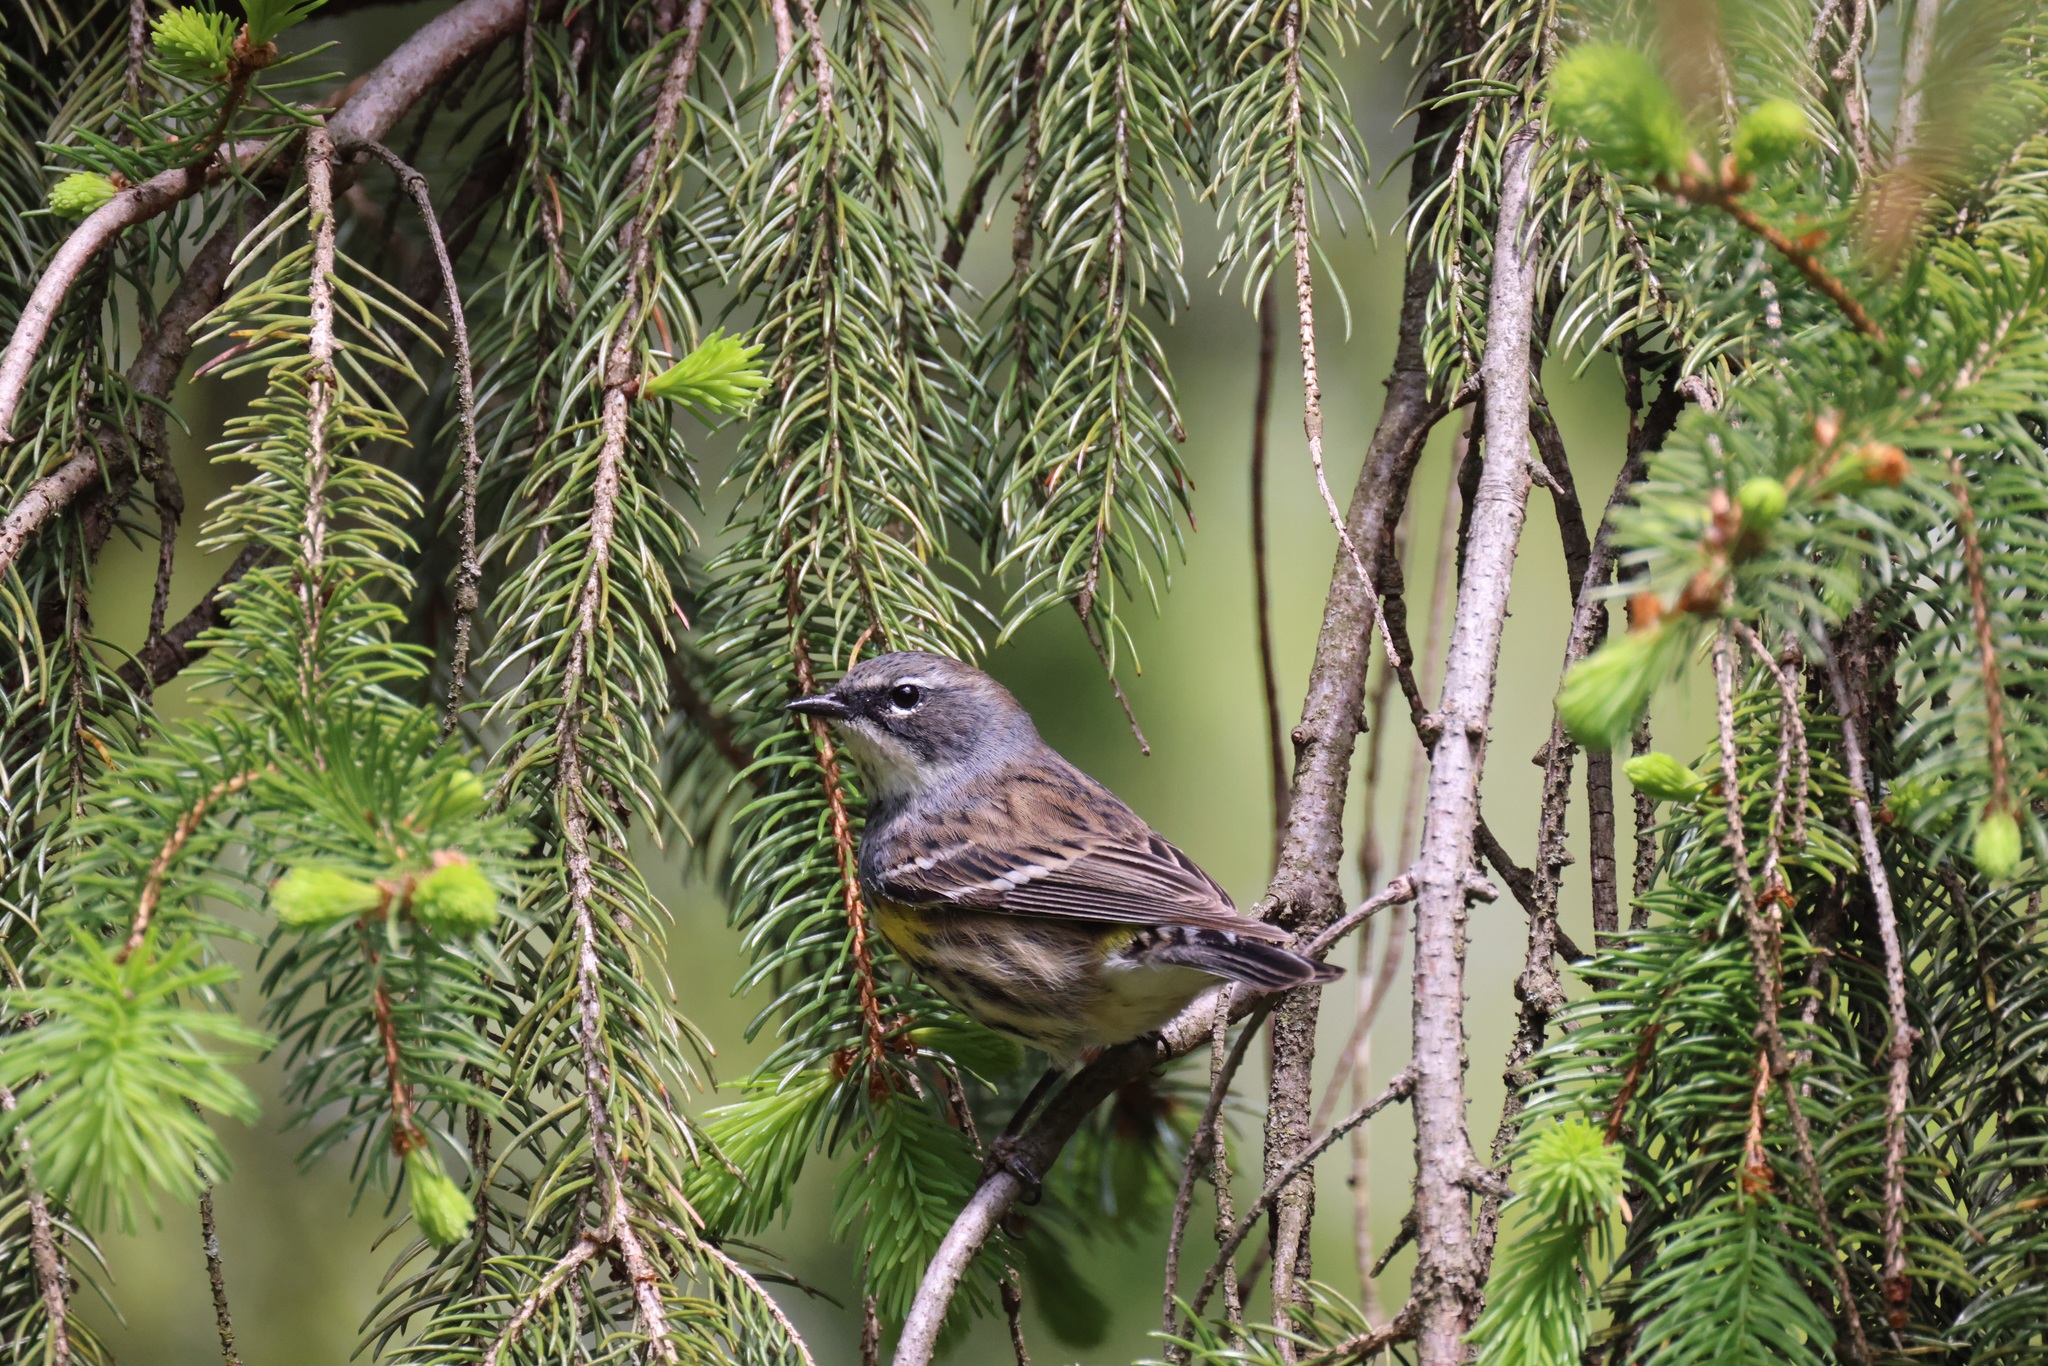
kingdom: Animalia
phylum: Chordata
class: Aves
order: Passeriformes
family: Parulidae
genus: Setophaga
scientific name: Setophaga coronata
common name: Myrtle warbler
